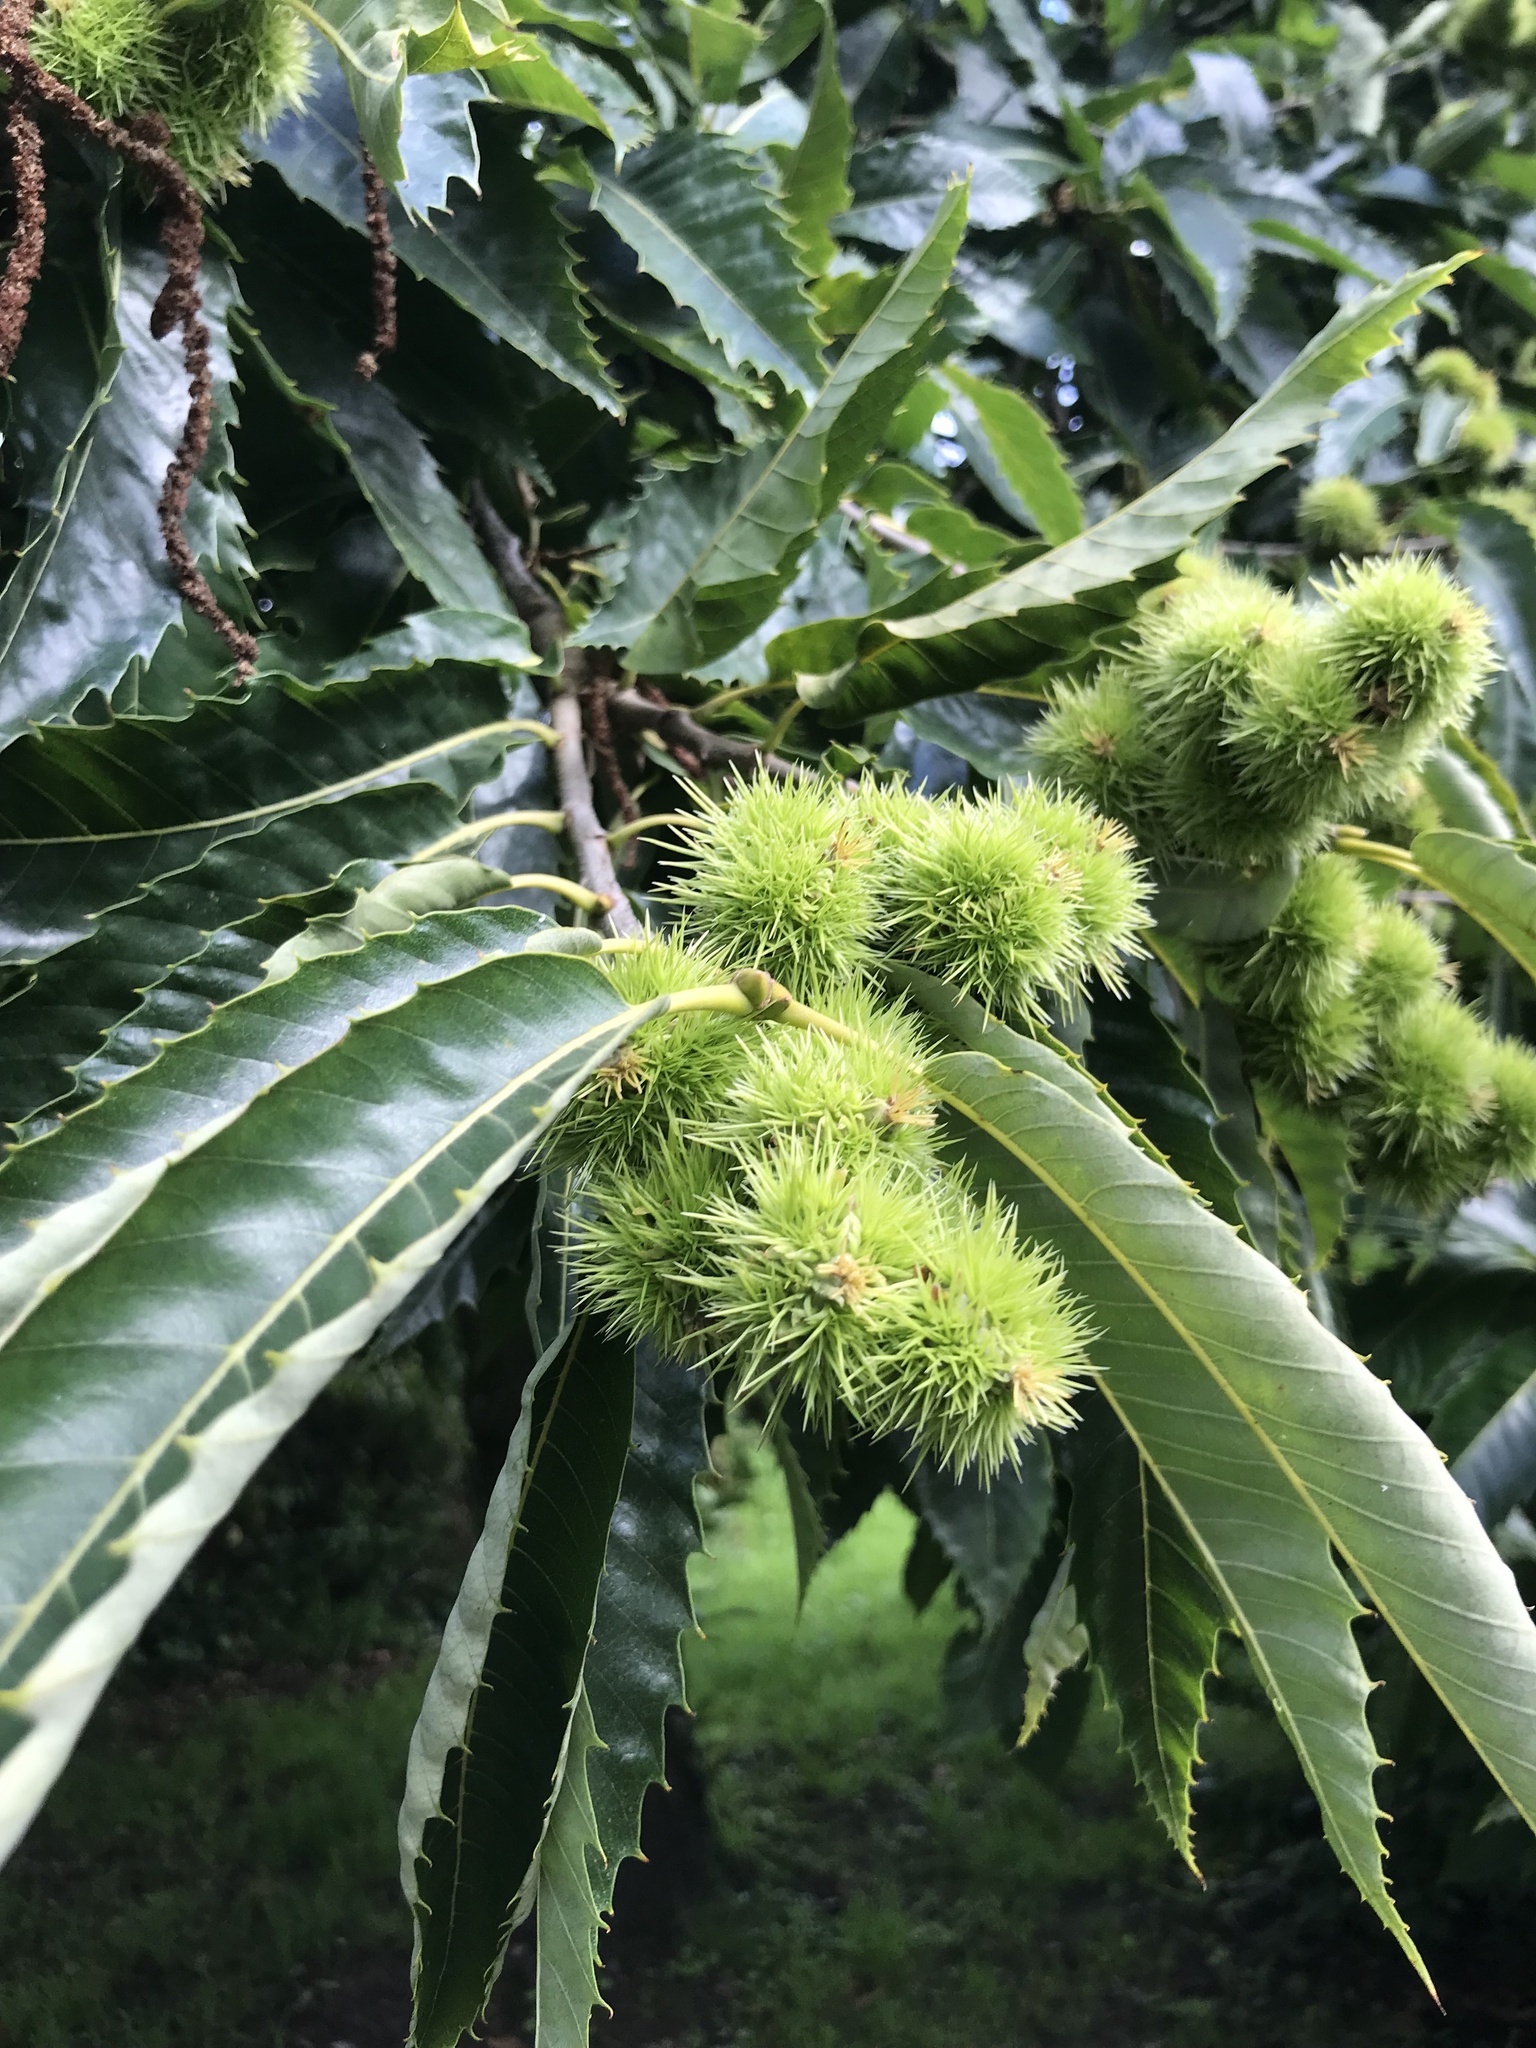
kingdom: Plantae
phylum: Tracheophyta
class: Magnoliopsida
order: Fagales
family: Fagaceae
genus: Castanea
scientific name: Castanea sativa
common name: Sweet chestnut
